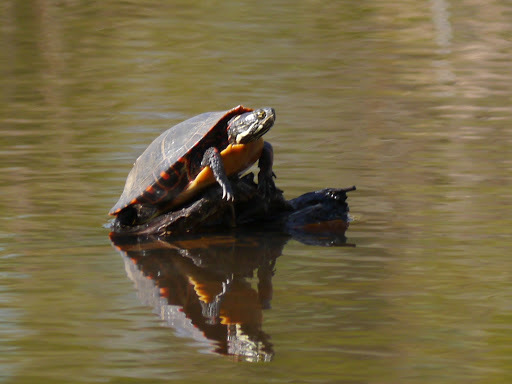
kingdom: Animalia
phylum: Chordata
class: Testudines
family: Emydidae
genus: Chrysemys
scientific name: Chrysemys picta
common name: Painted turtle
